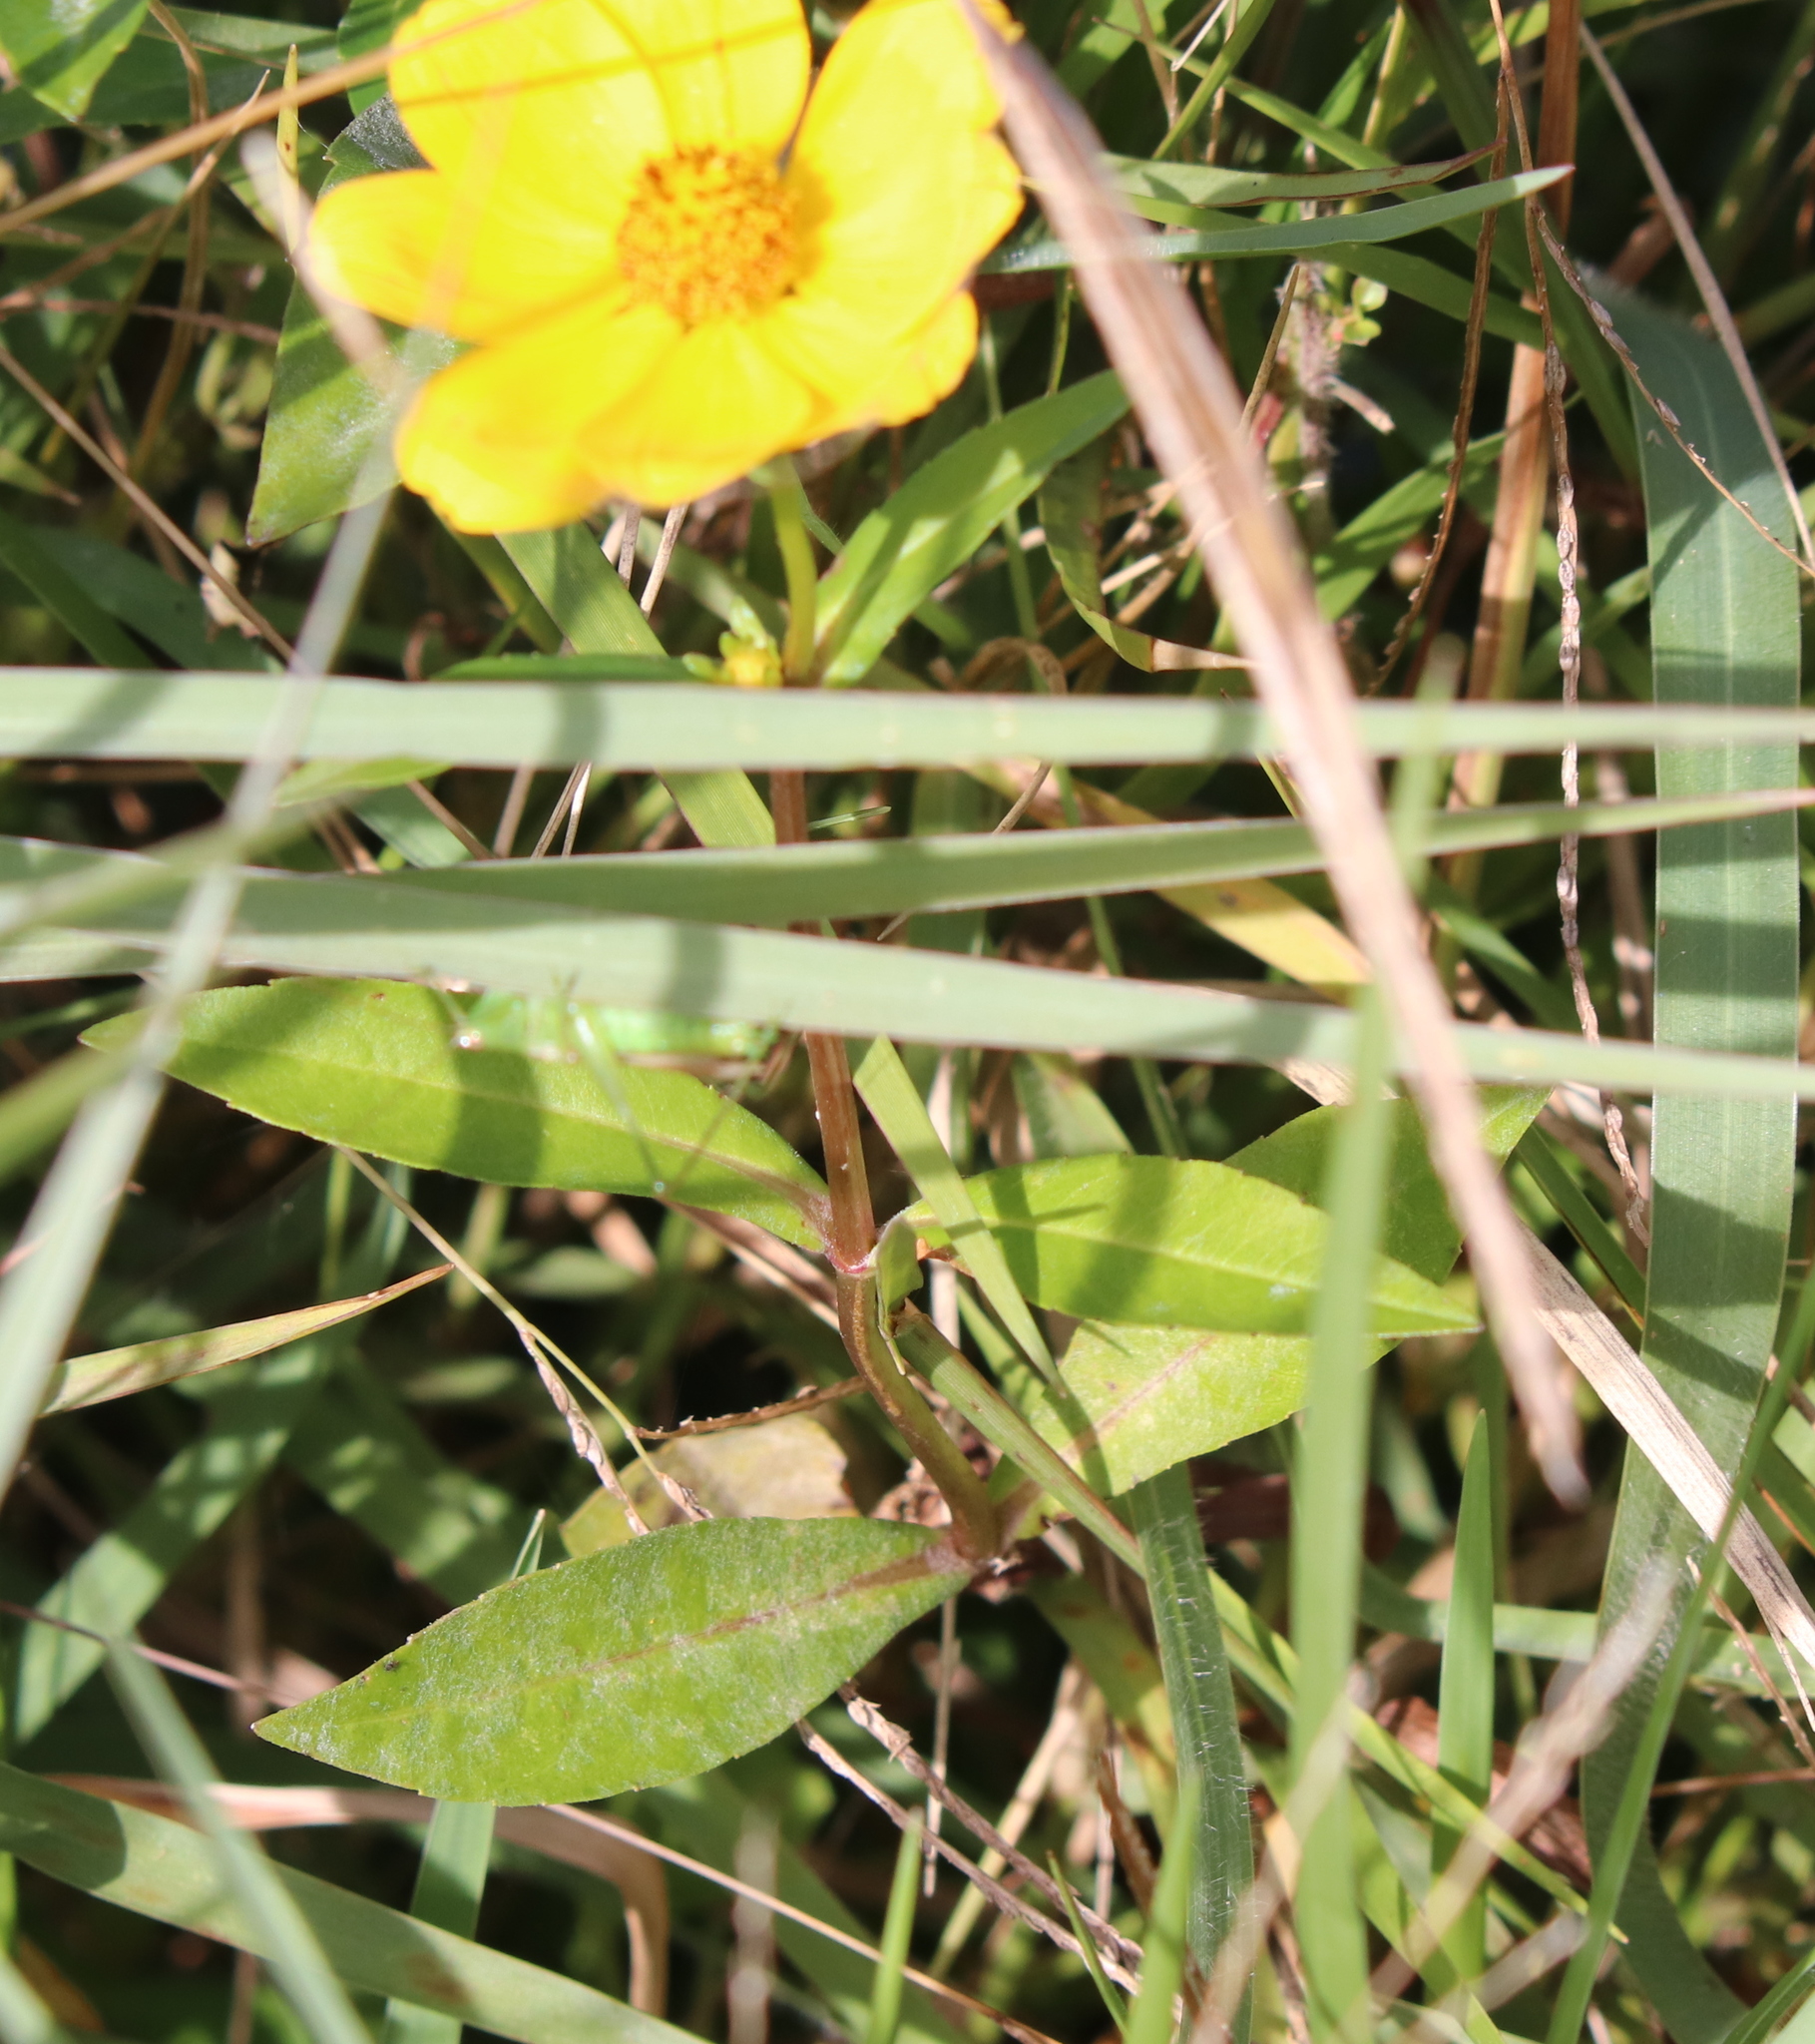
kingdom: Plantae
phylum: Tracheophyta
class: Magnoliopsida
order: Asterales
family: Asteraceae
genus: Bidens
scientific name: Bidens laevis
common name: Larger bur-marigold
